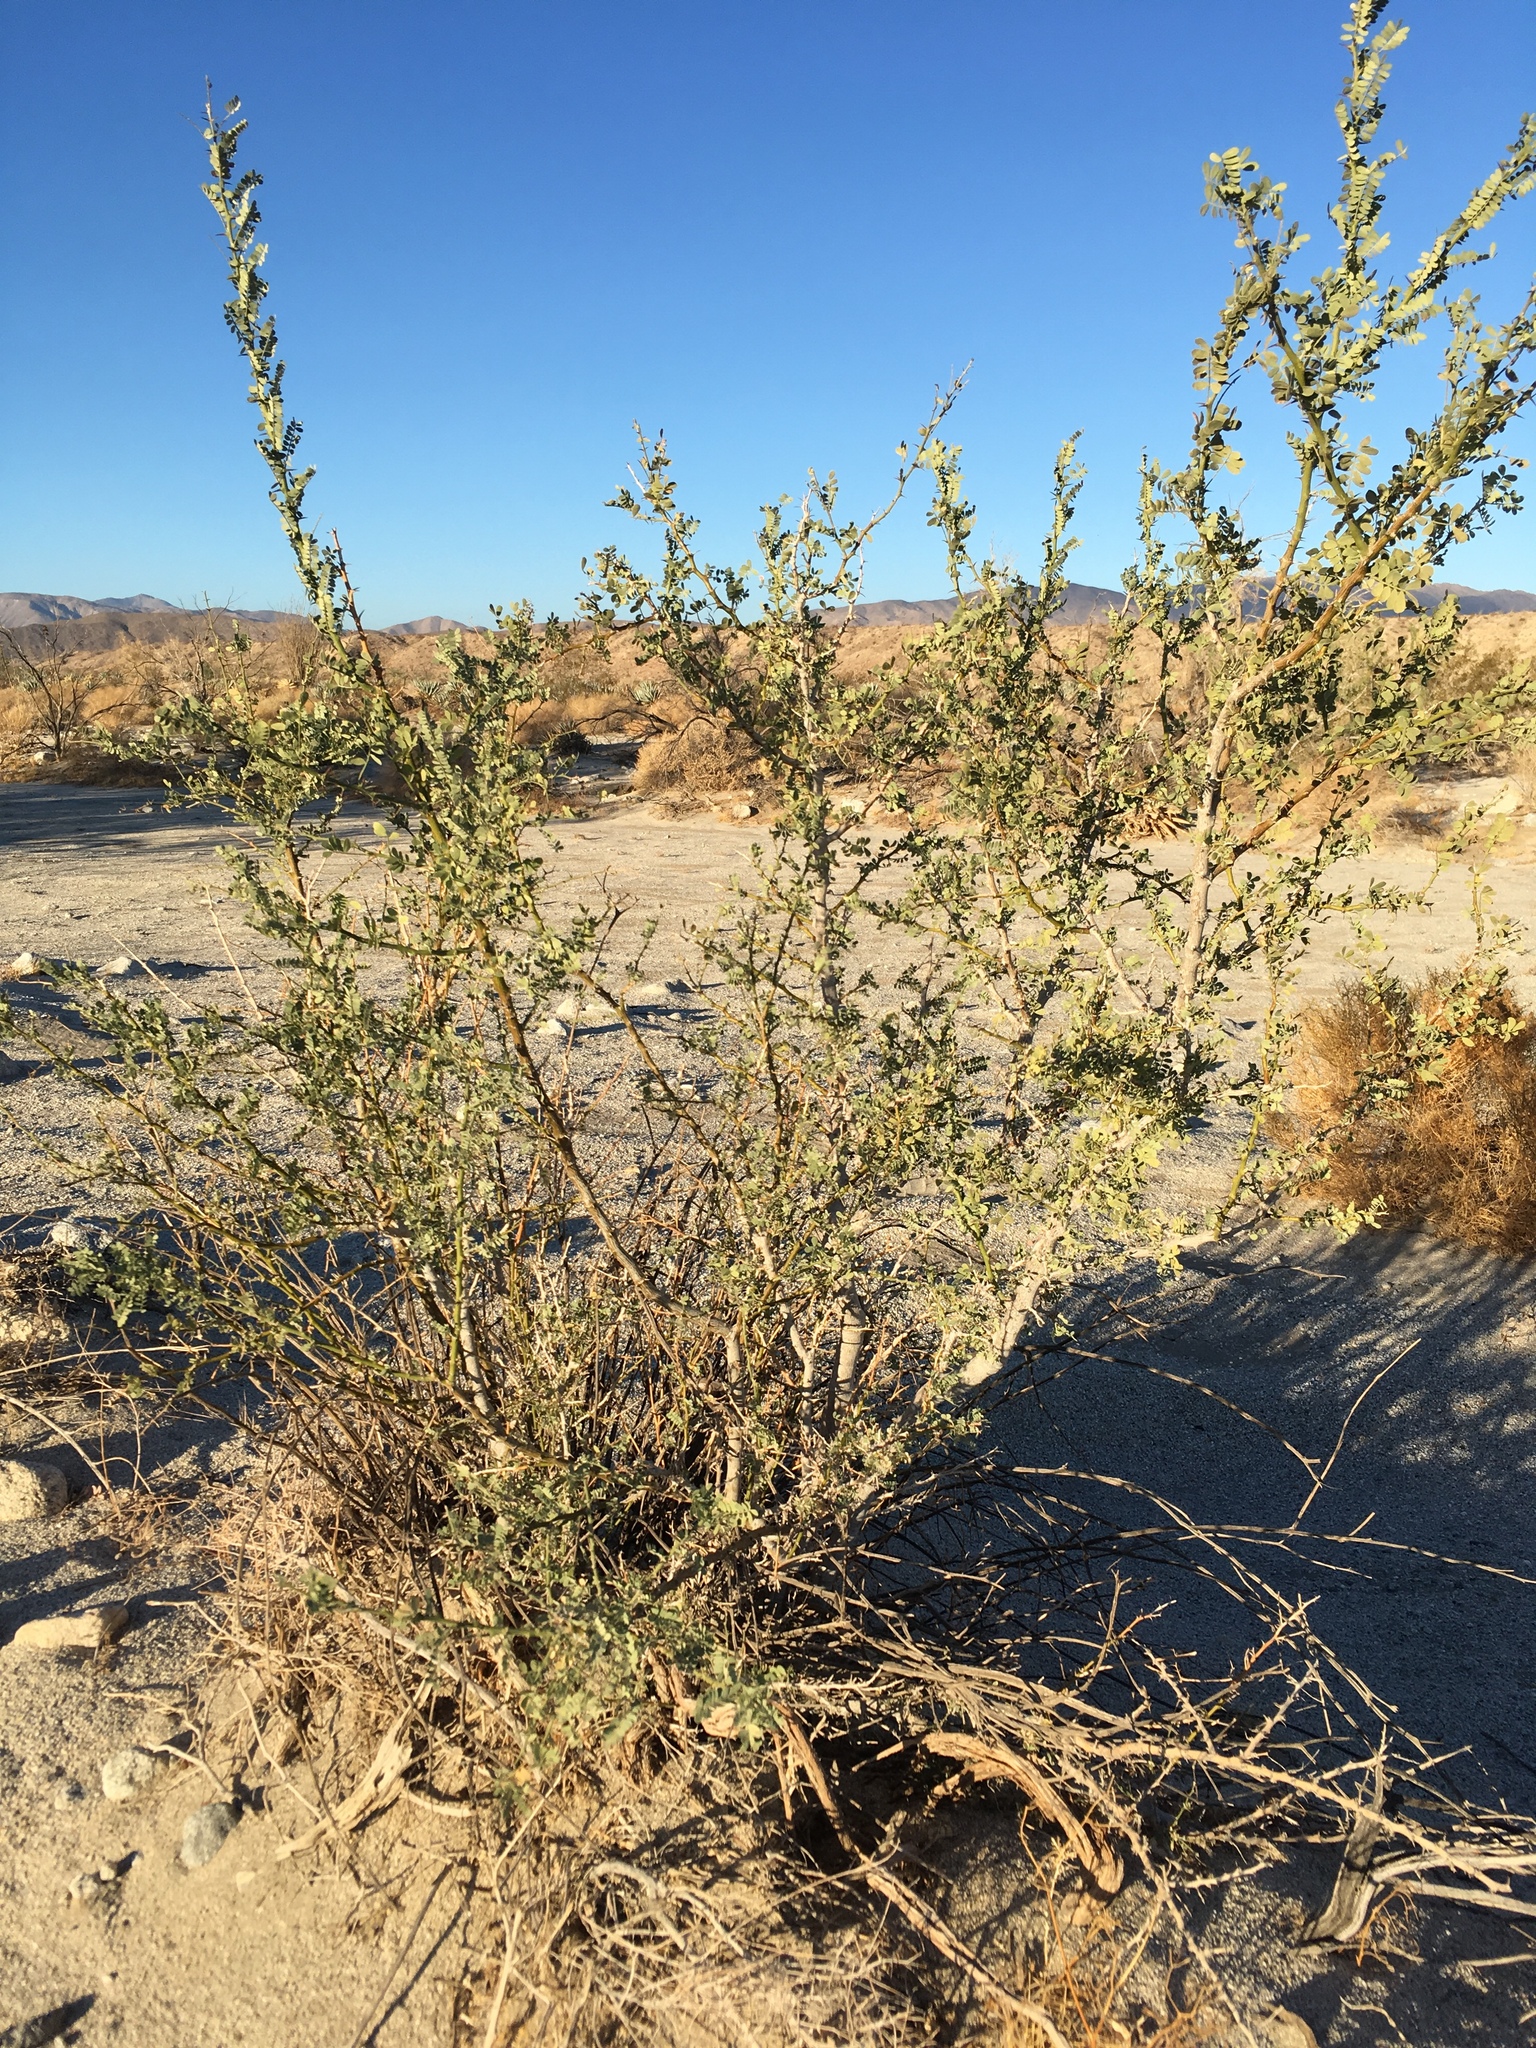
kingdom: Plantae
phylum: Tracheophyta
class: Magnoliopsida
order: Fabales
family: Fabaceae
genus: Olneya
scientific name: Olneya tesota
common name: Desert ironwood
